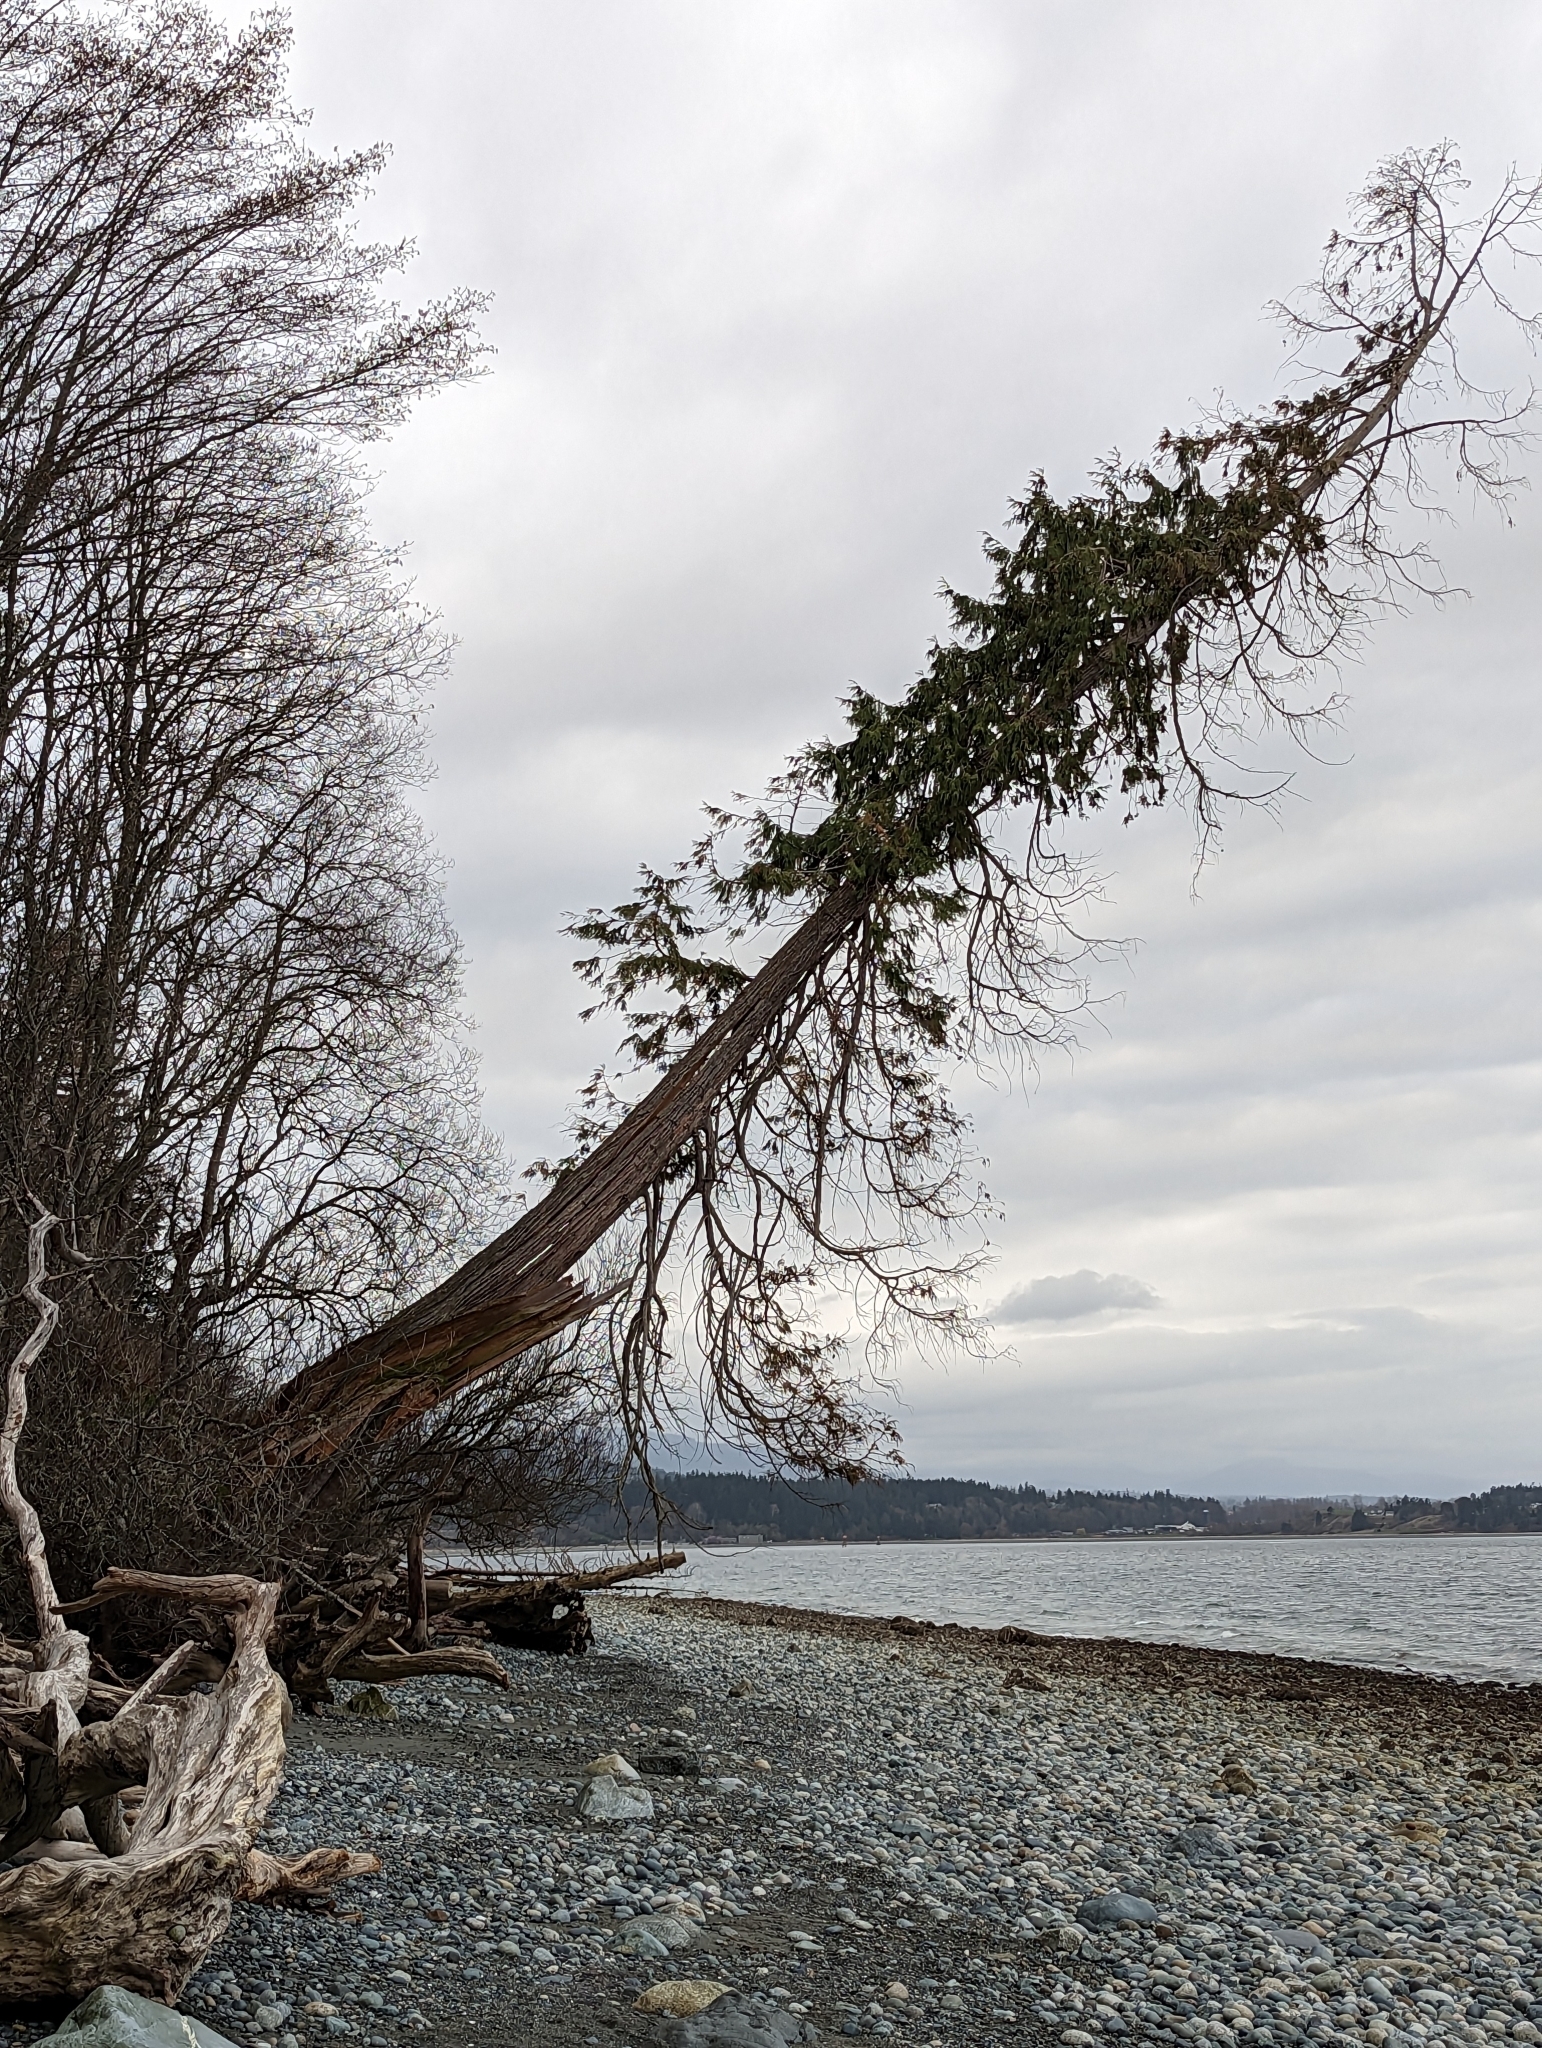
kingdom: Plantae
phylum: Tracheophyta
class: Pinopsida
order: Pinales
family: Cupressaceae
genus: Thuja
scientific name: Thuja plicata
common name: Western red-cedar
